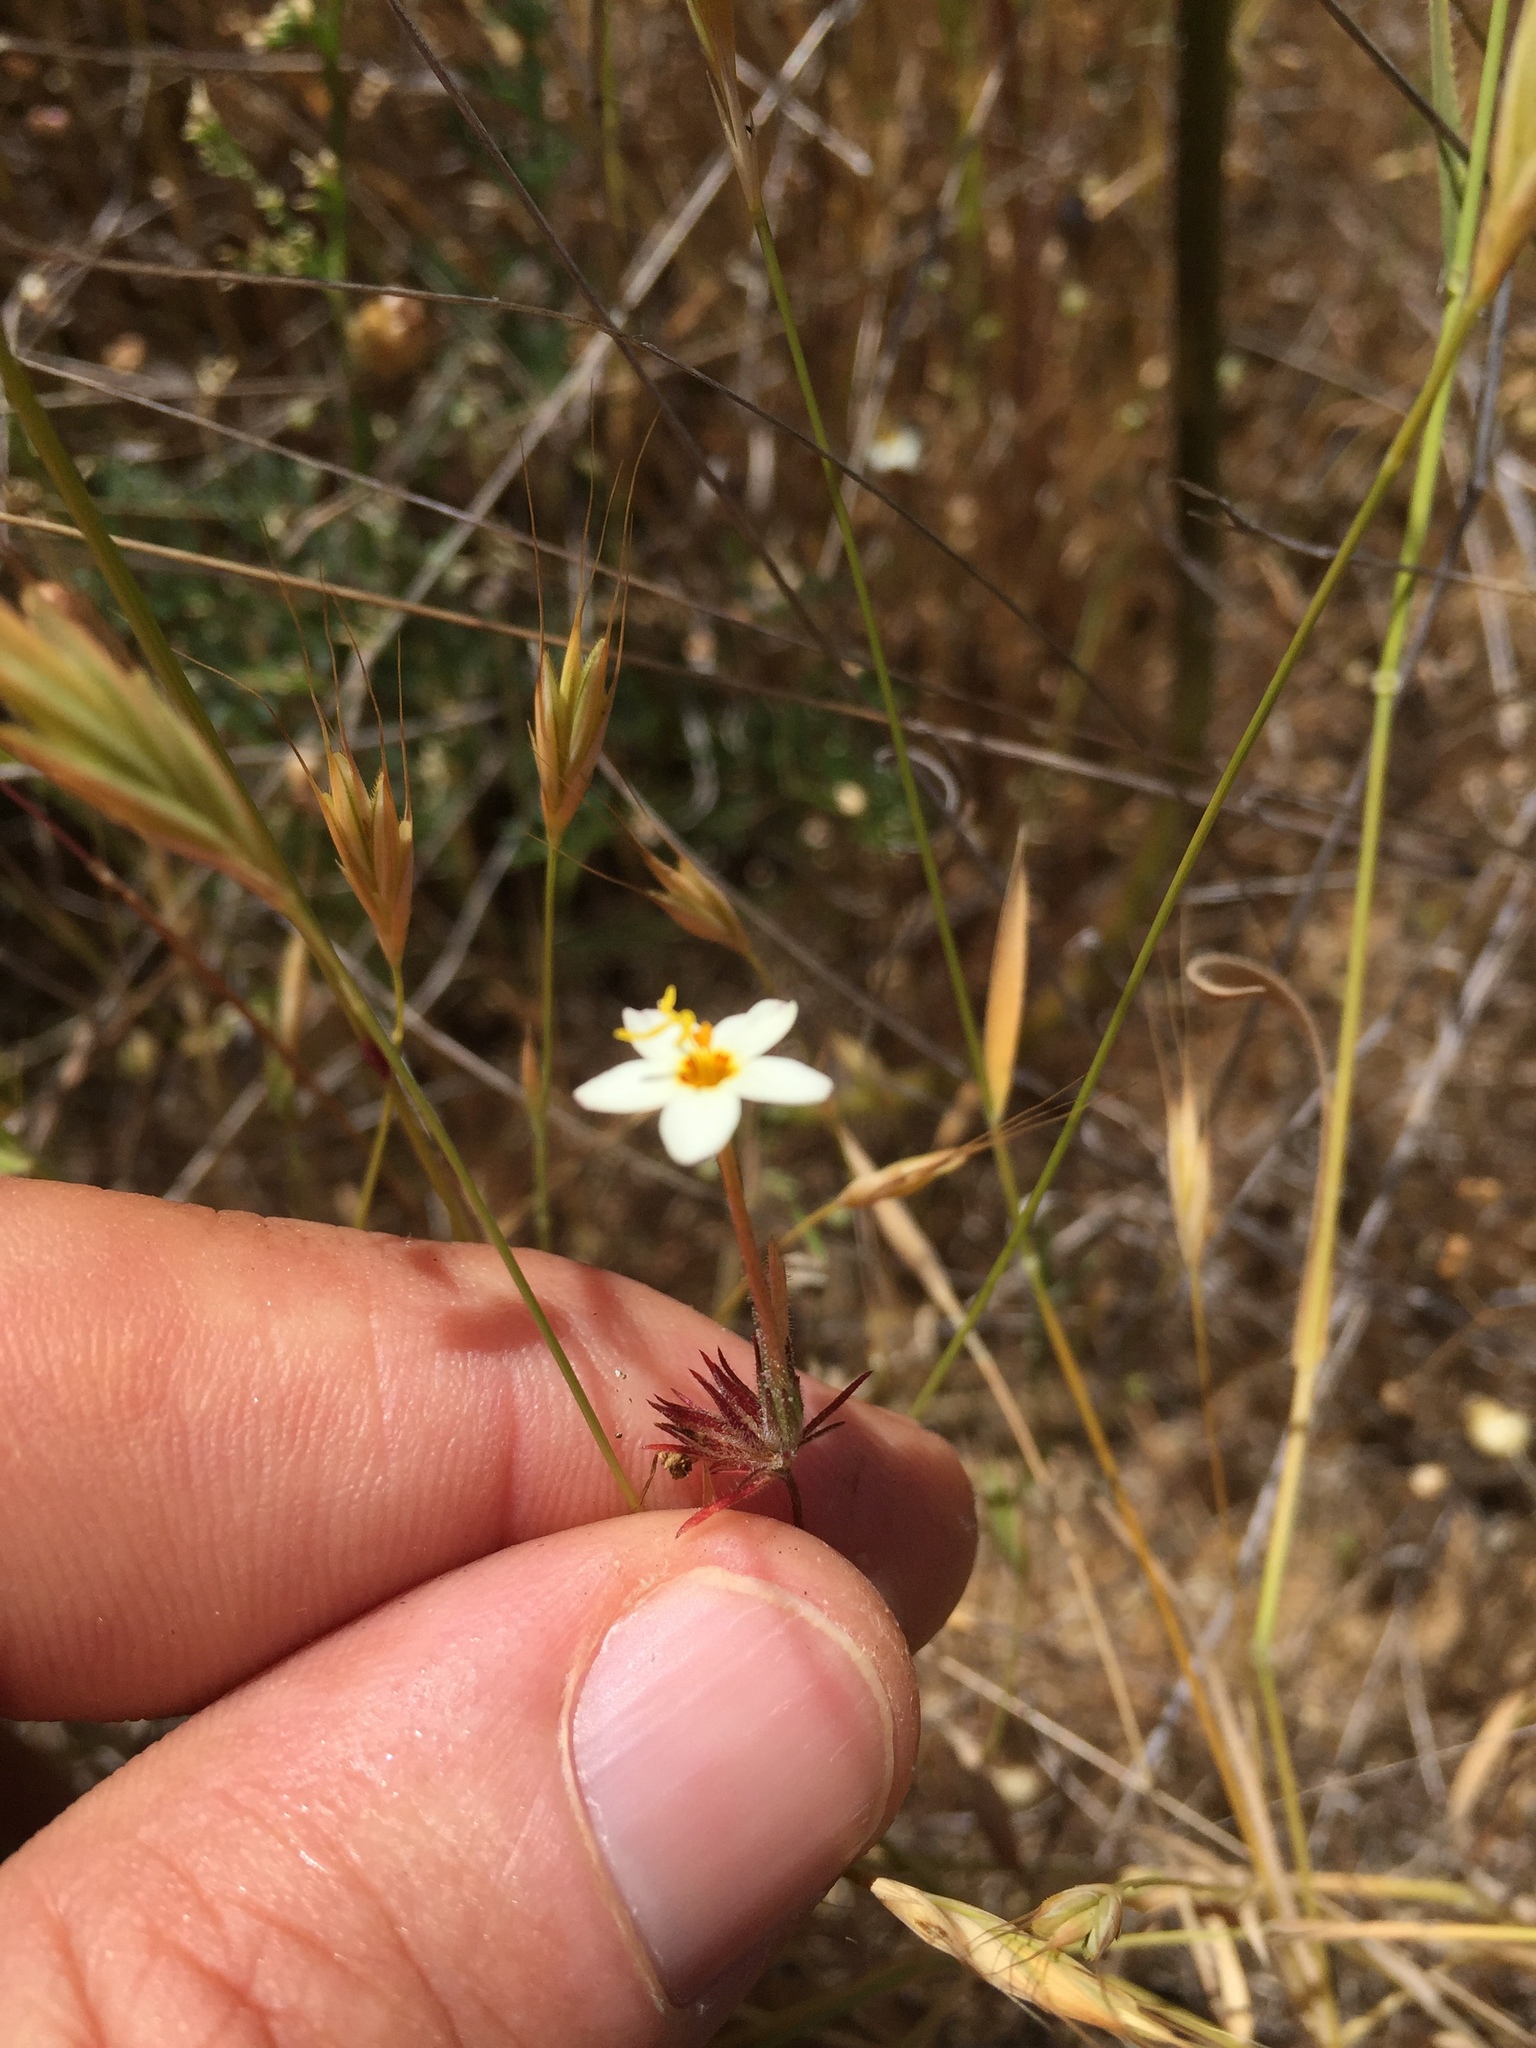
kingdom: Plantae
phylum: Tracheophyta
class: Magnoliopsida
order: Ericales
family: Polemoniaceae
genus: Leptosiphon
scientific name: Leptosiphon parviflorus
